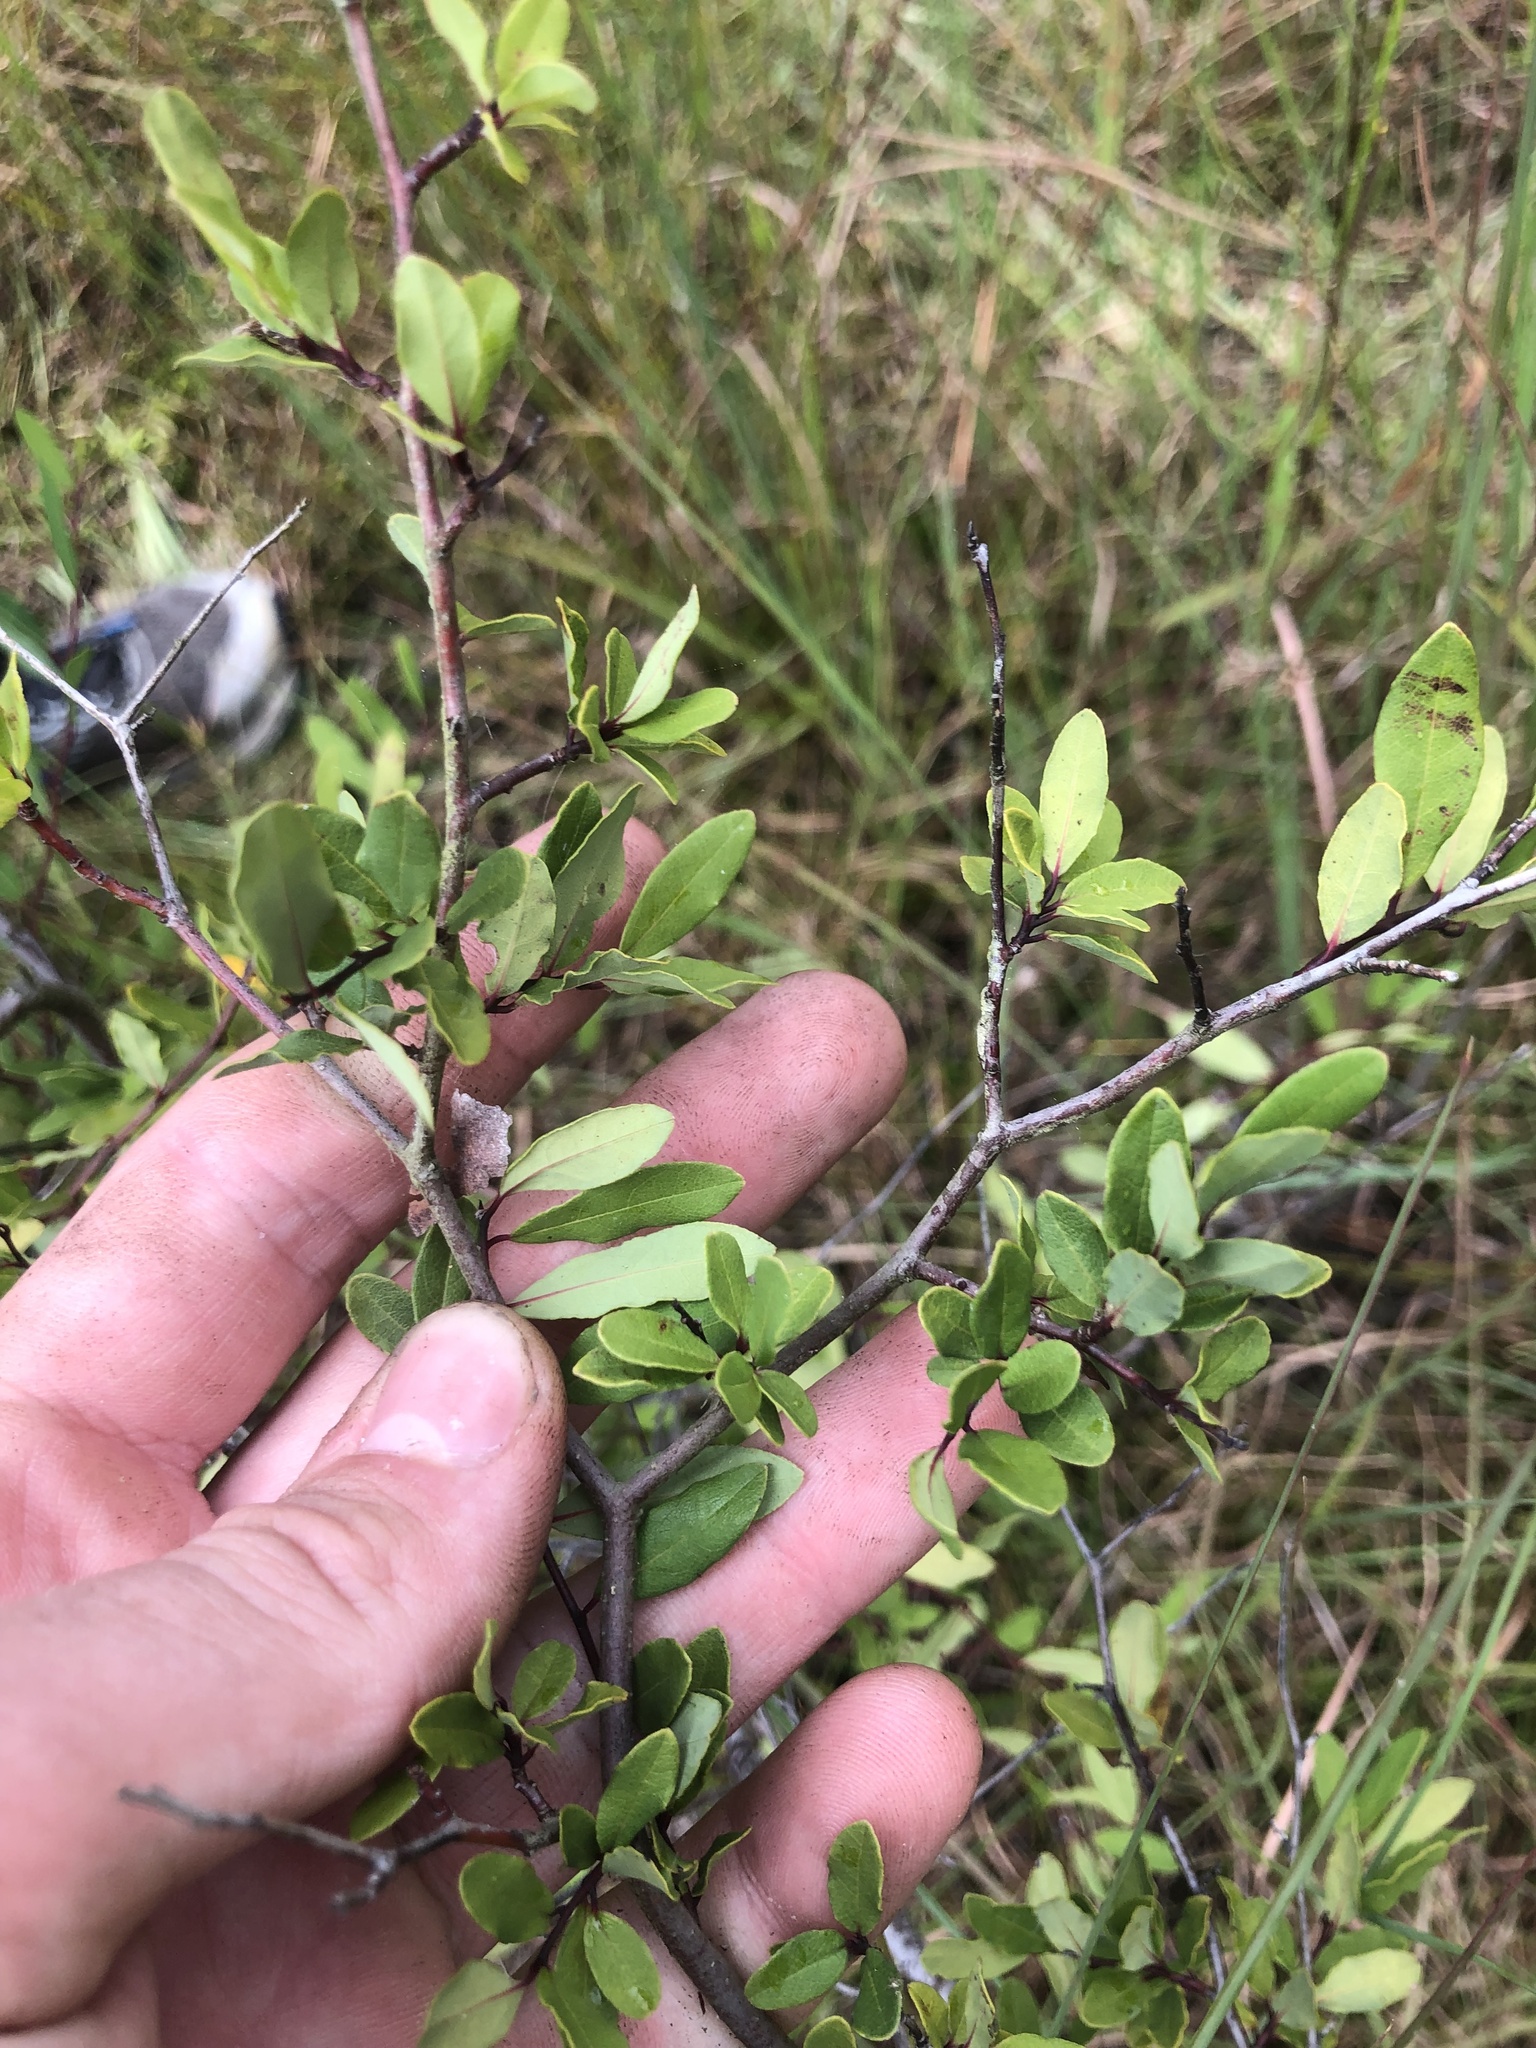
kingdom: Plantae
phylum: Tracheophyta
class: Magnoliopsida
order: Laurales
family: Lauraceae
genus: Litsea
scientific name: Litsea aestivalis
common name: Pondspice
